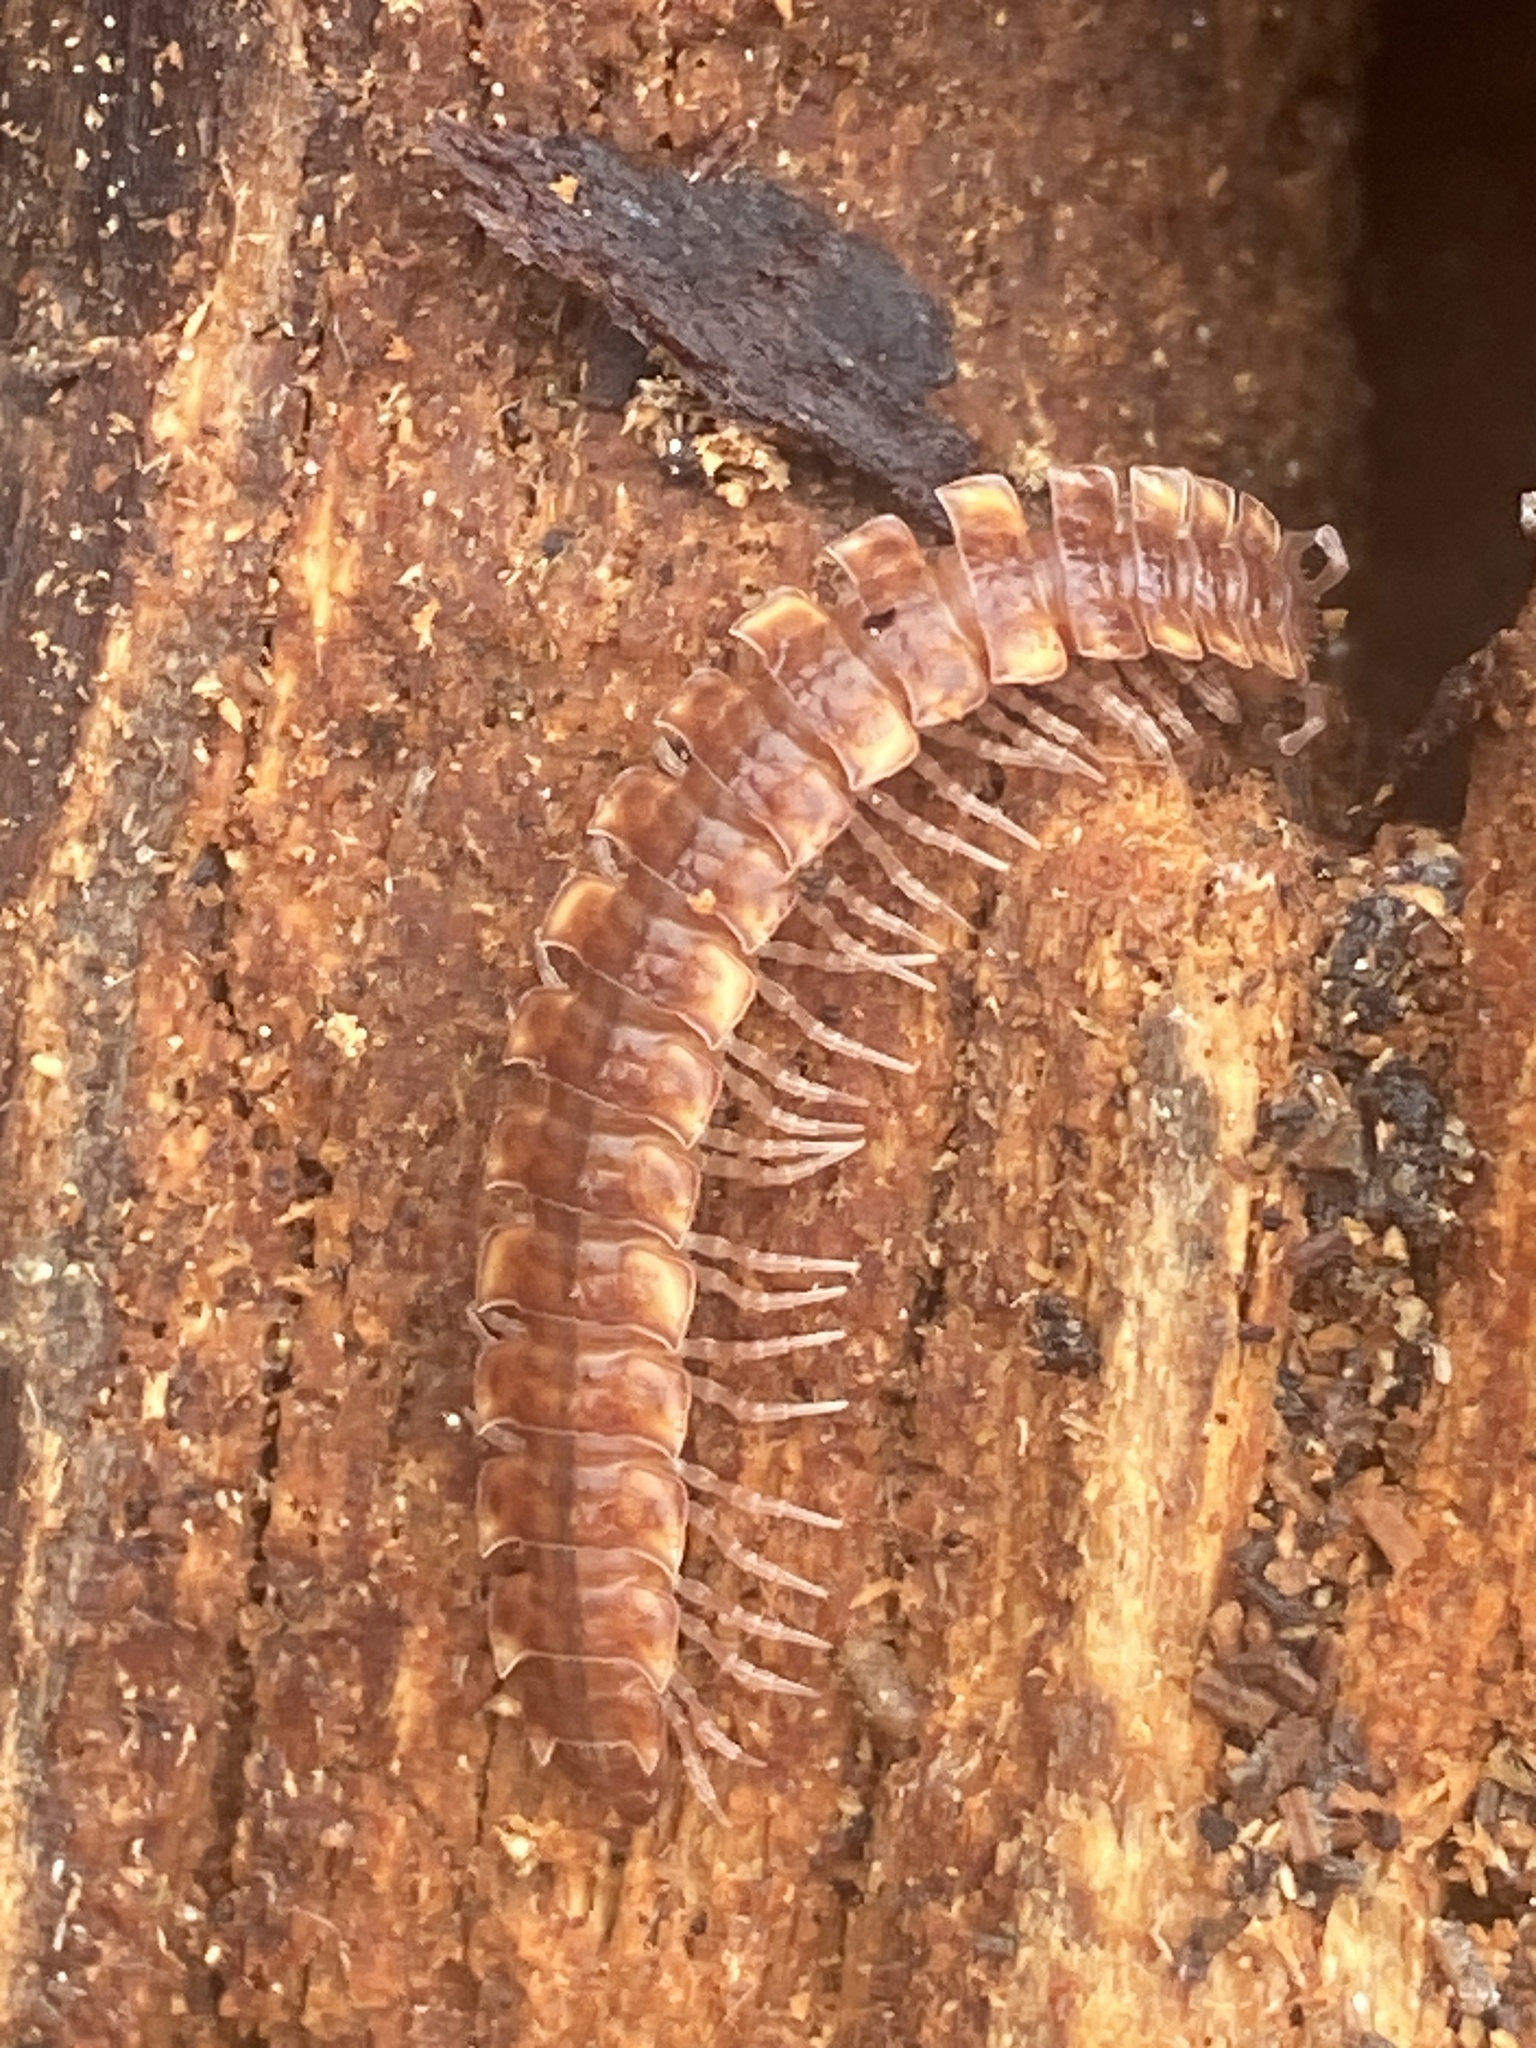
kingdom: Animalia
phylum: Arthropoda
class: Diplopoda
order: Polydesmida
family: Polydesmidae
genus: Polydesmus
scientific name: Polydesmus complanatus
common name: Flat-backed millipede
